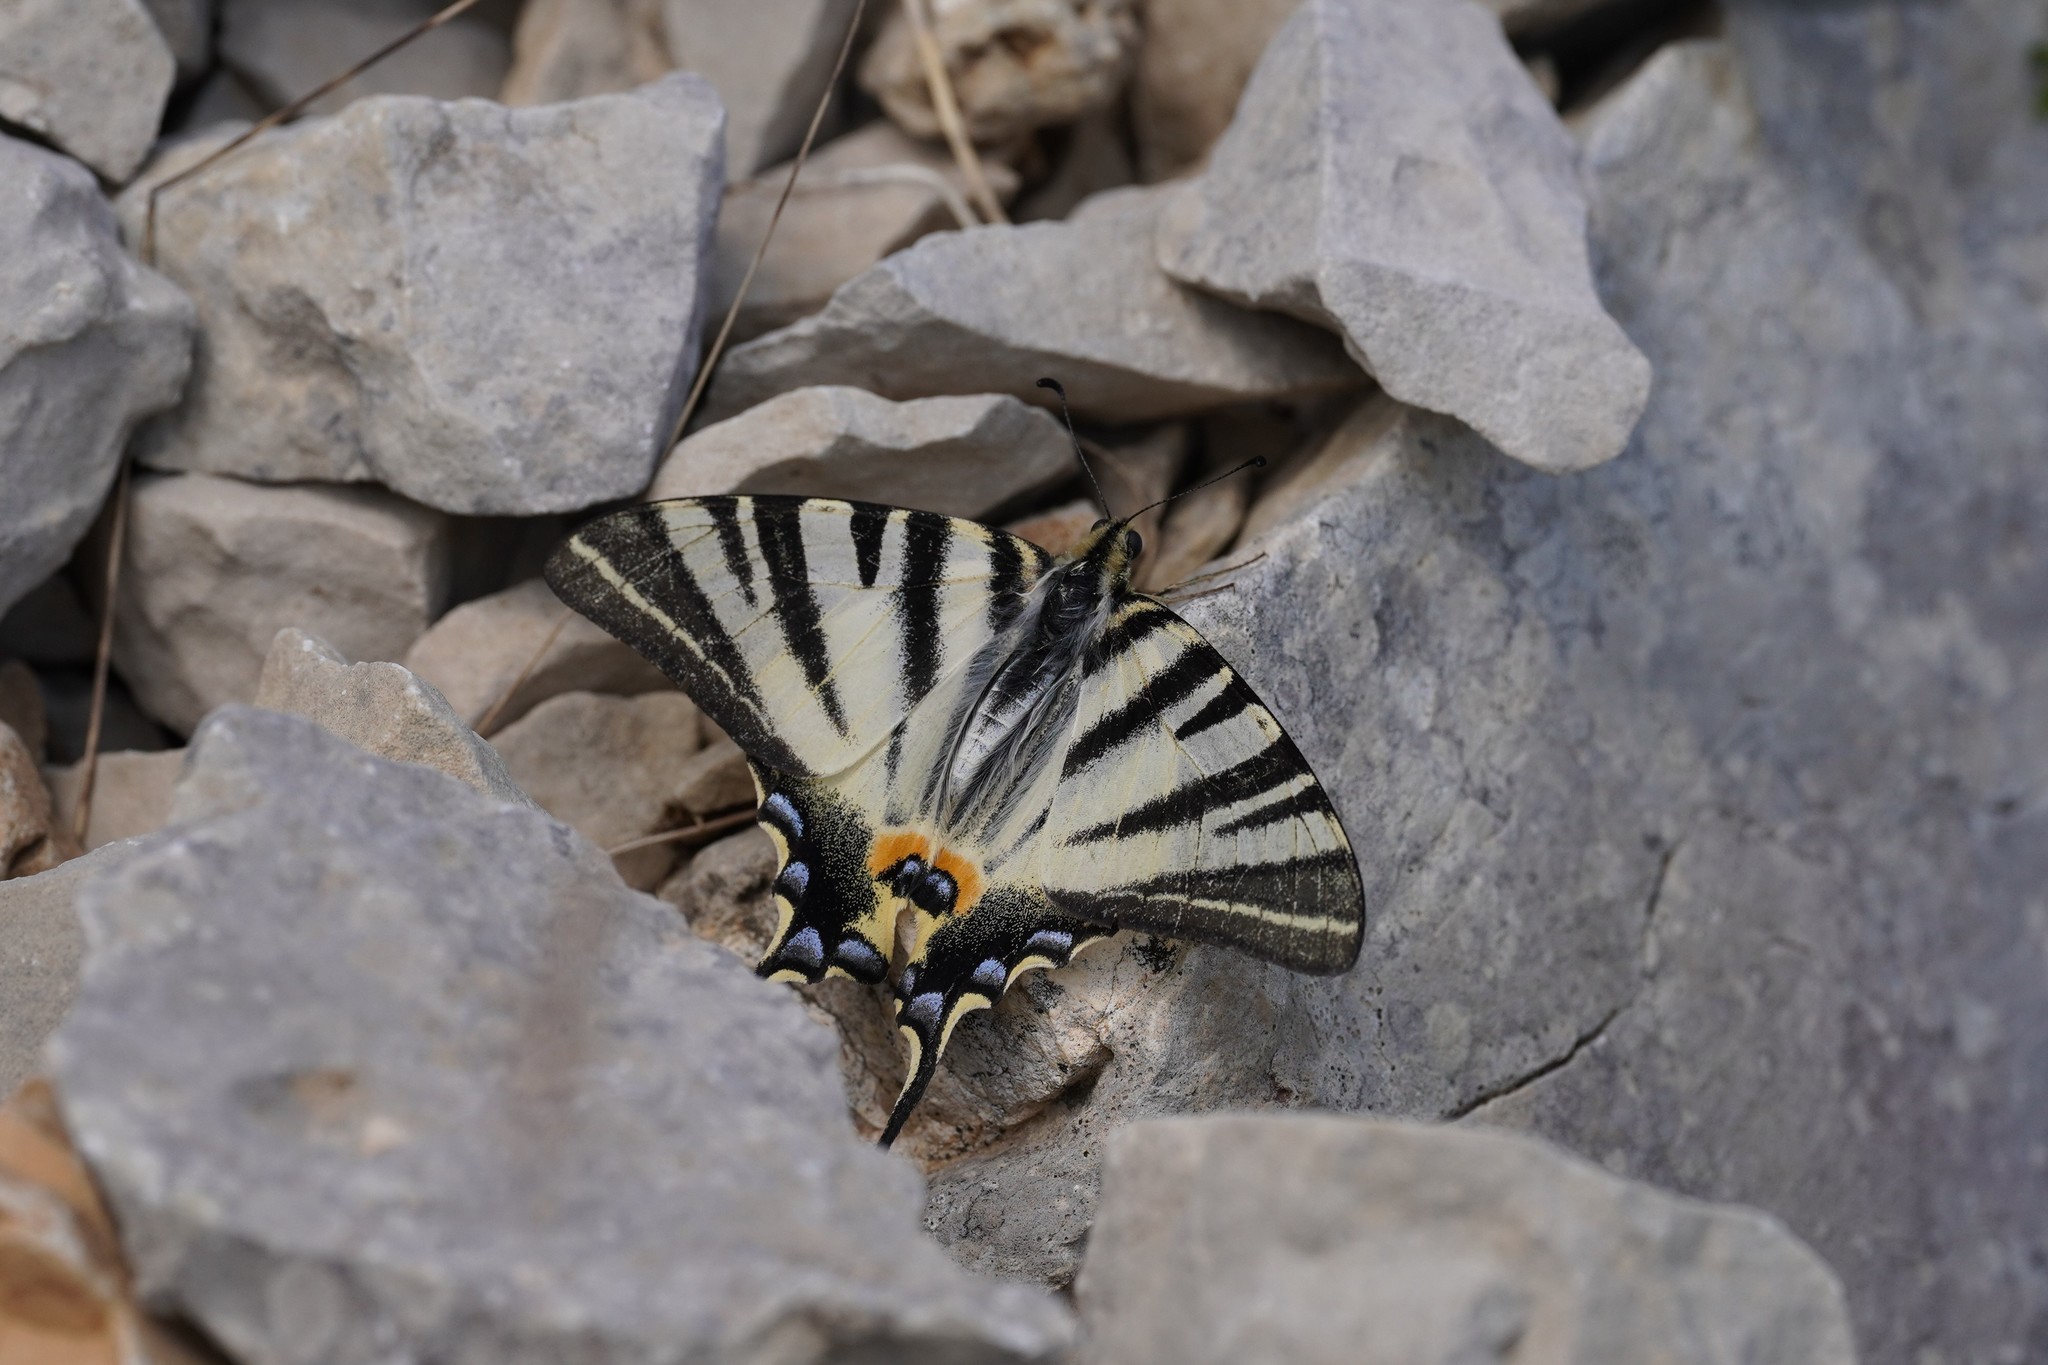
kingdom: Animalia
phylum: Arthropoda
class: Insecta
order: Lepidoptera
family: Papilionidae
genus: Iphiclides
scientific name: Iphiclides podalirius
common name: Scarce swallowtail
